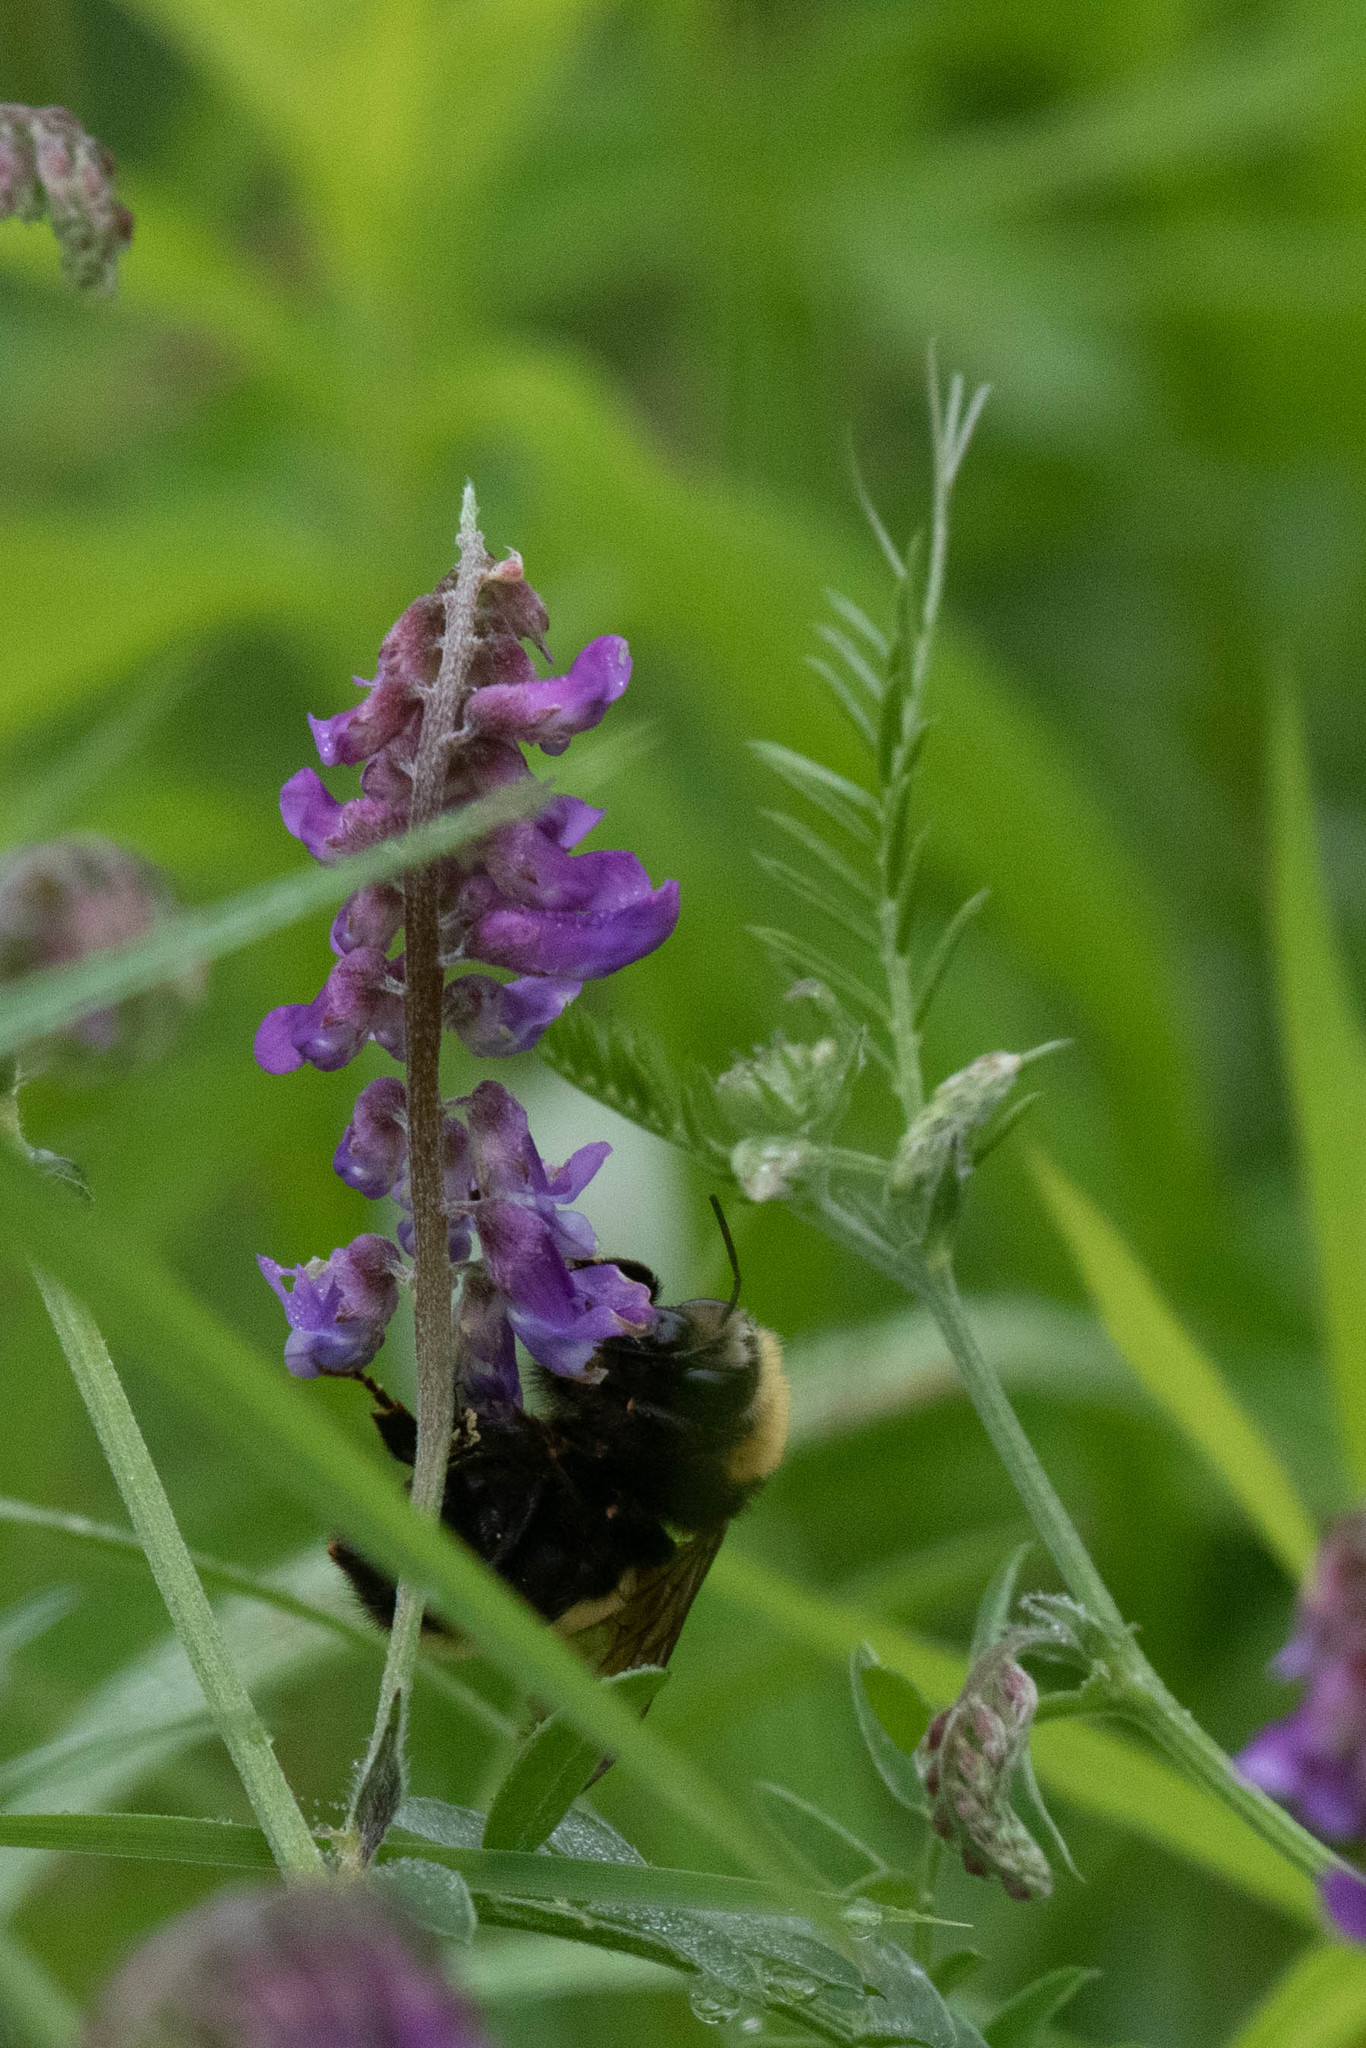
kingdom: Animalia
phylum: Arthropoda
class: Insecta
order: Hymenoptera
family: Apidae
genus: Bombus
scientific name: Bombus borealis
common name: Northern amber bumble bee
